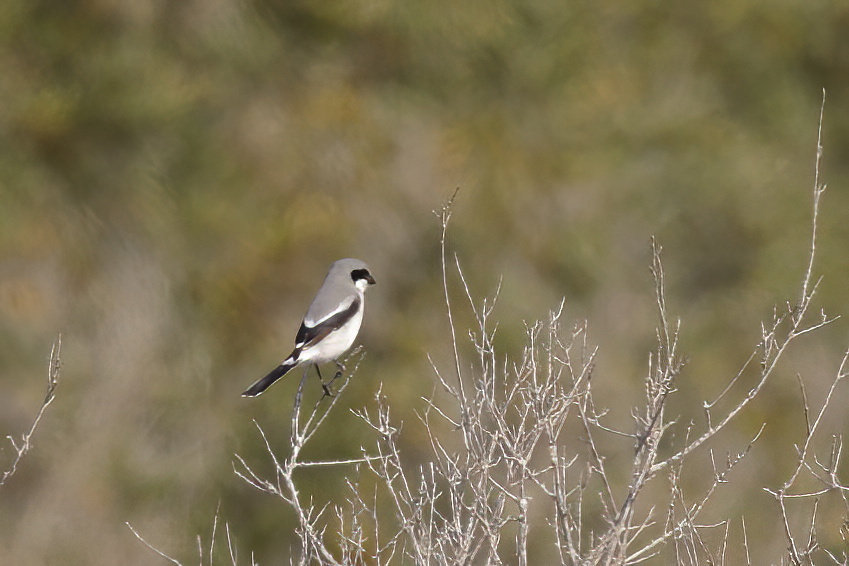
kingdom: Animalia
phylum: Chordata
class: Aves
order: Passeriformes
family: Laniidae
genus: Lanius
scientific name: Lanius ludovicianus
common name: Loggerhead shrike
